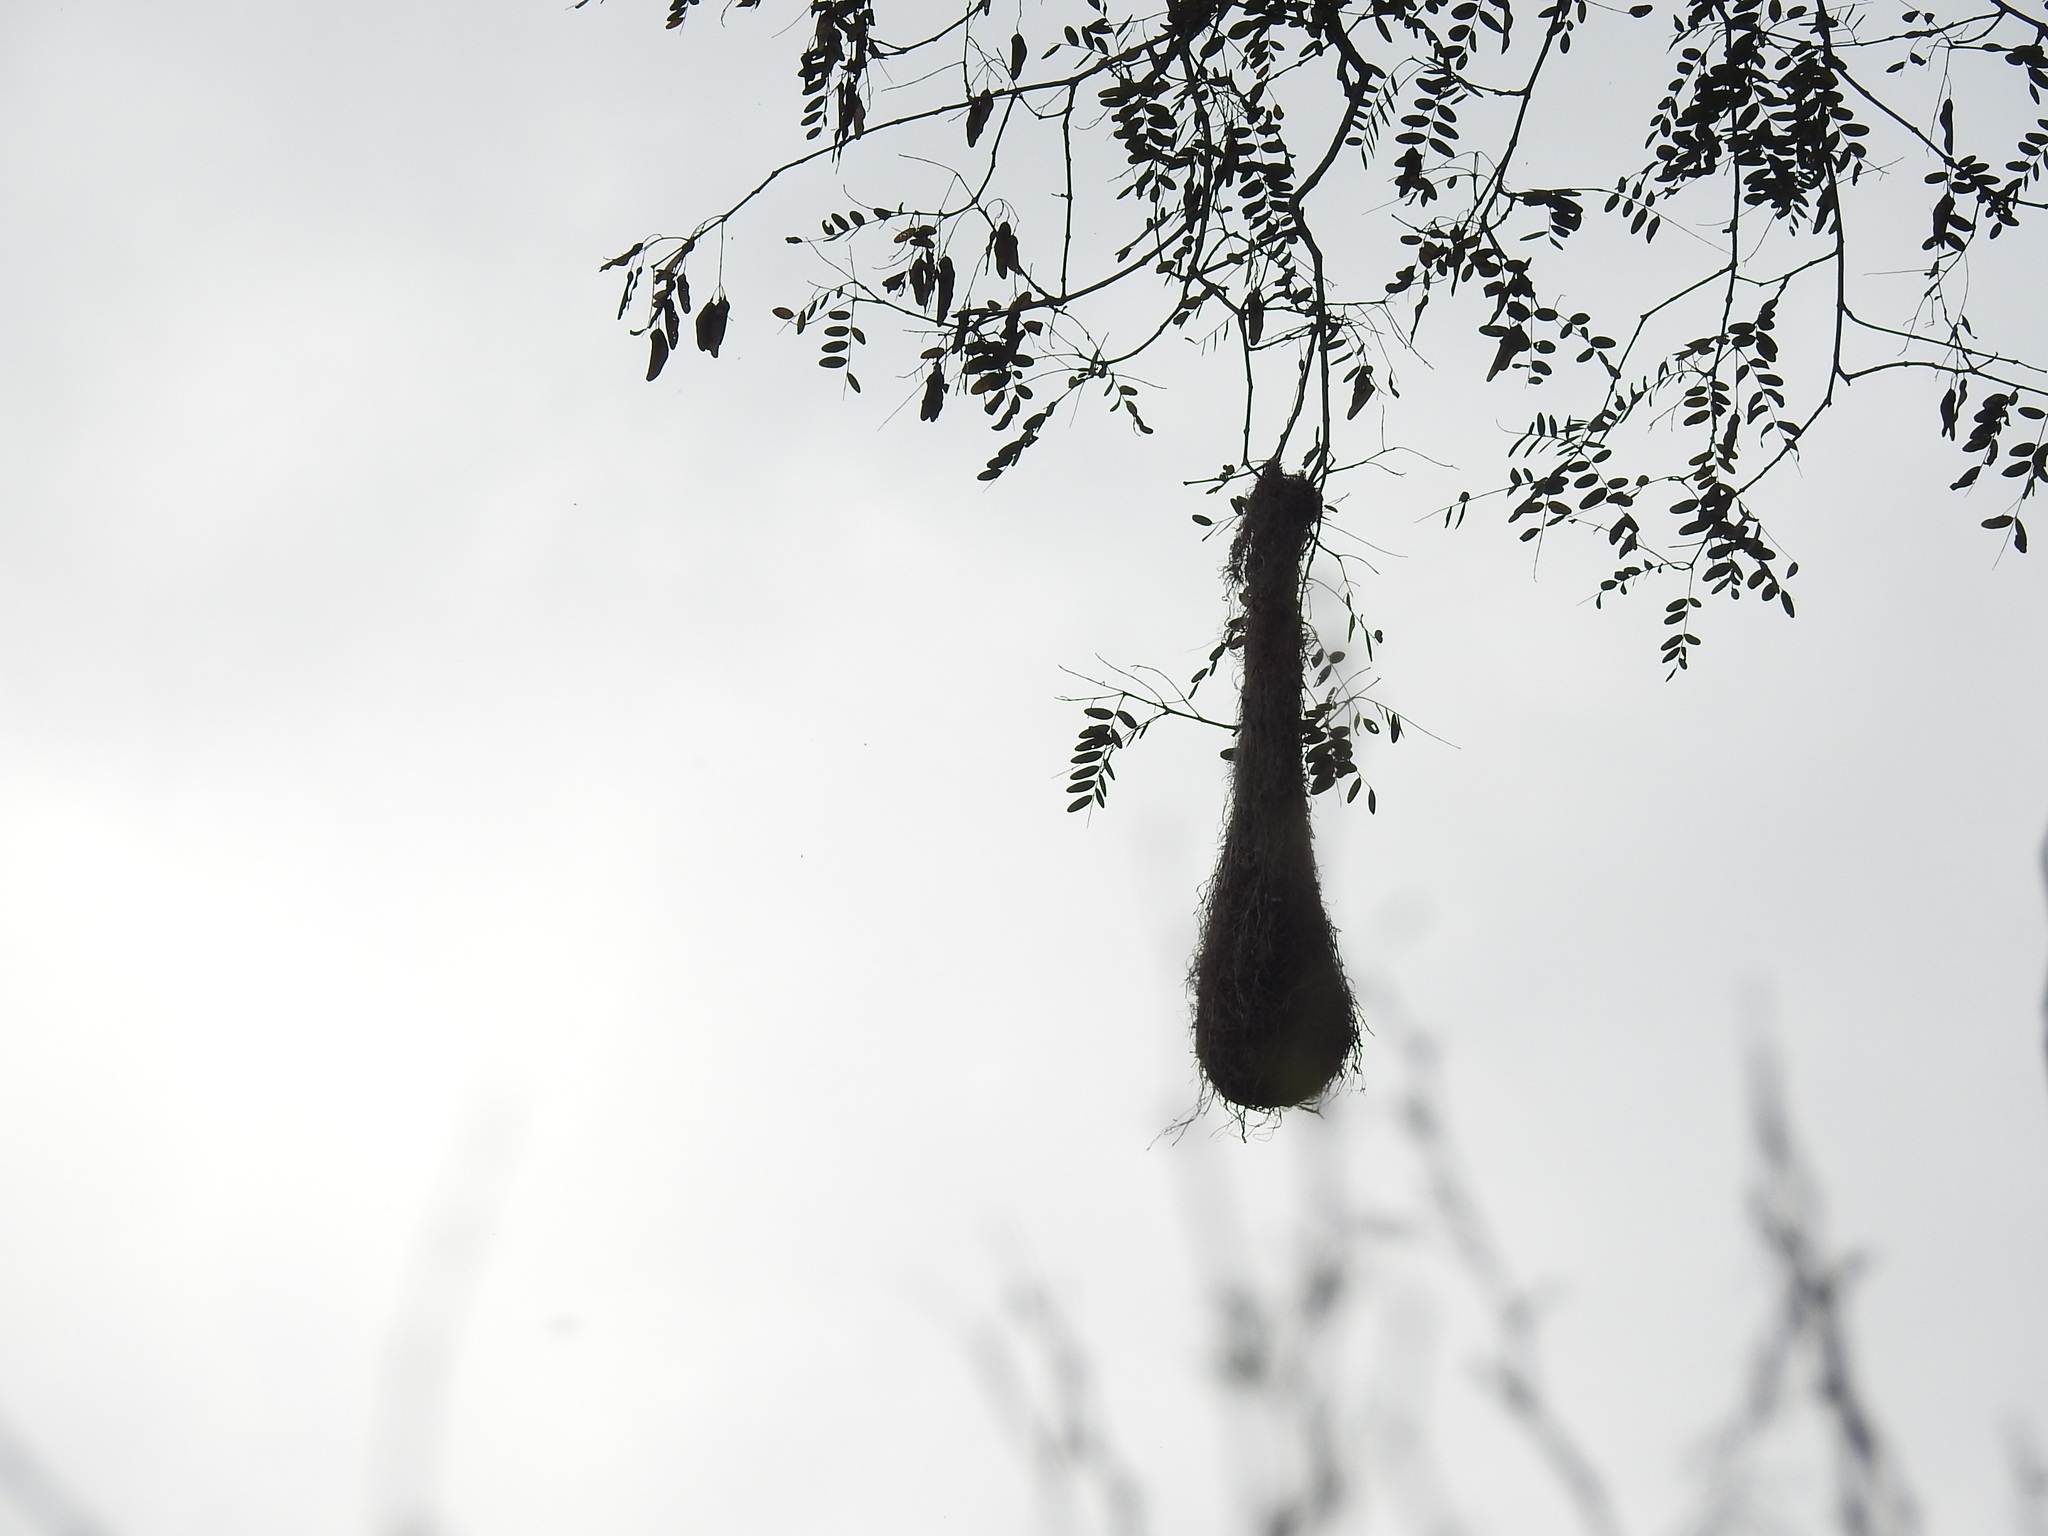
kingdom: Animalia
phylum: Chordata
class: Aves
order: Passeriformes
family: Icteridae
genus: Psarocolius
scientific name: Psarocolius decumanus
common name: Crested oropendola
